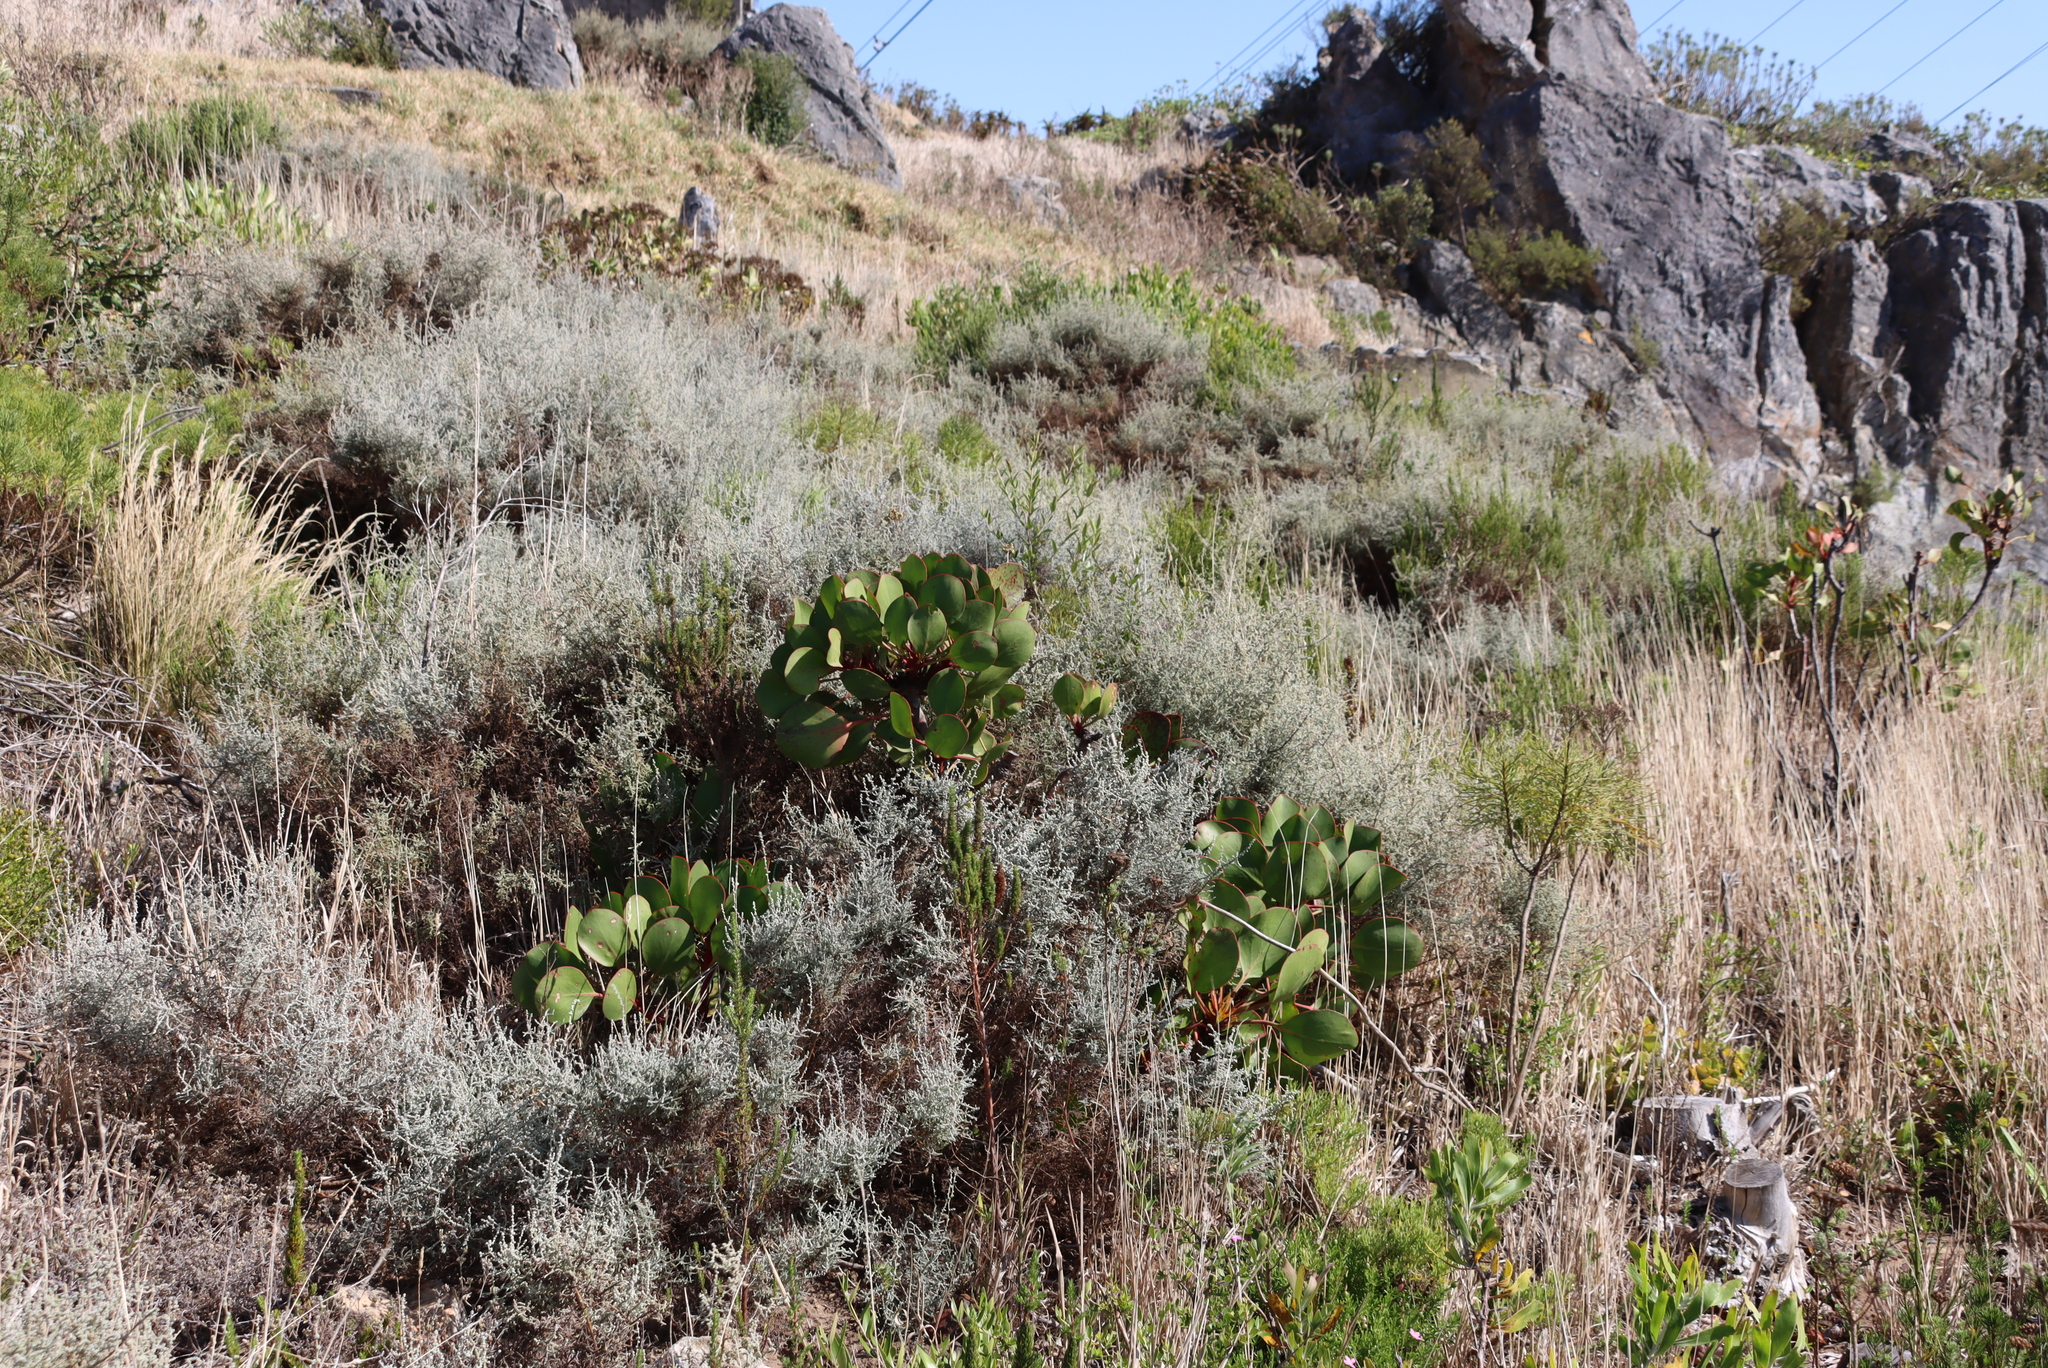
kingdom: Plantae
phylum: Tracheophyta
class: Magnoliopsida
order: Proteales
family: Proteaceae
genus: Protea
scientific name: Protea cynaroides
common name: King protea
